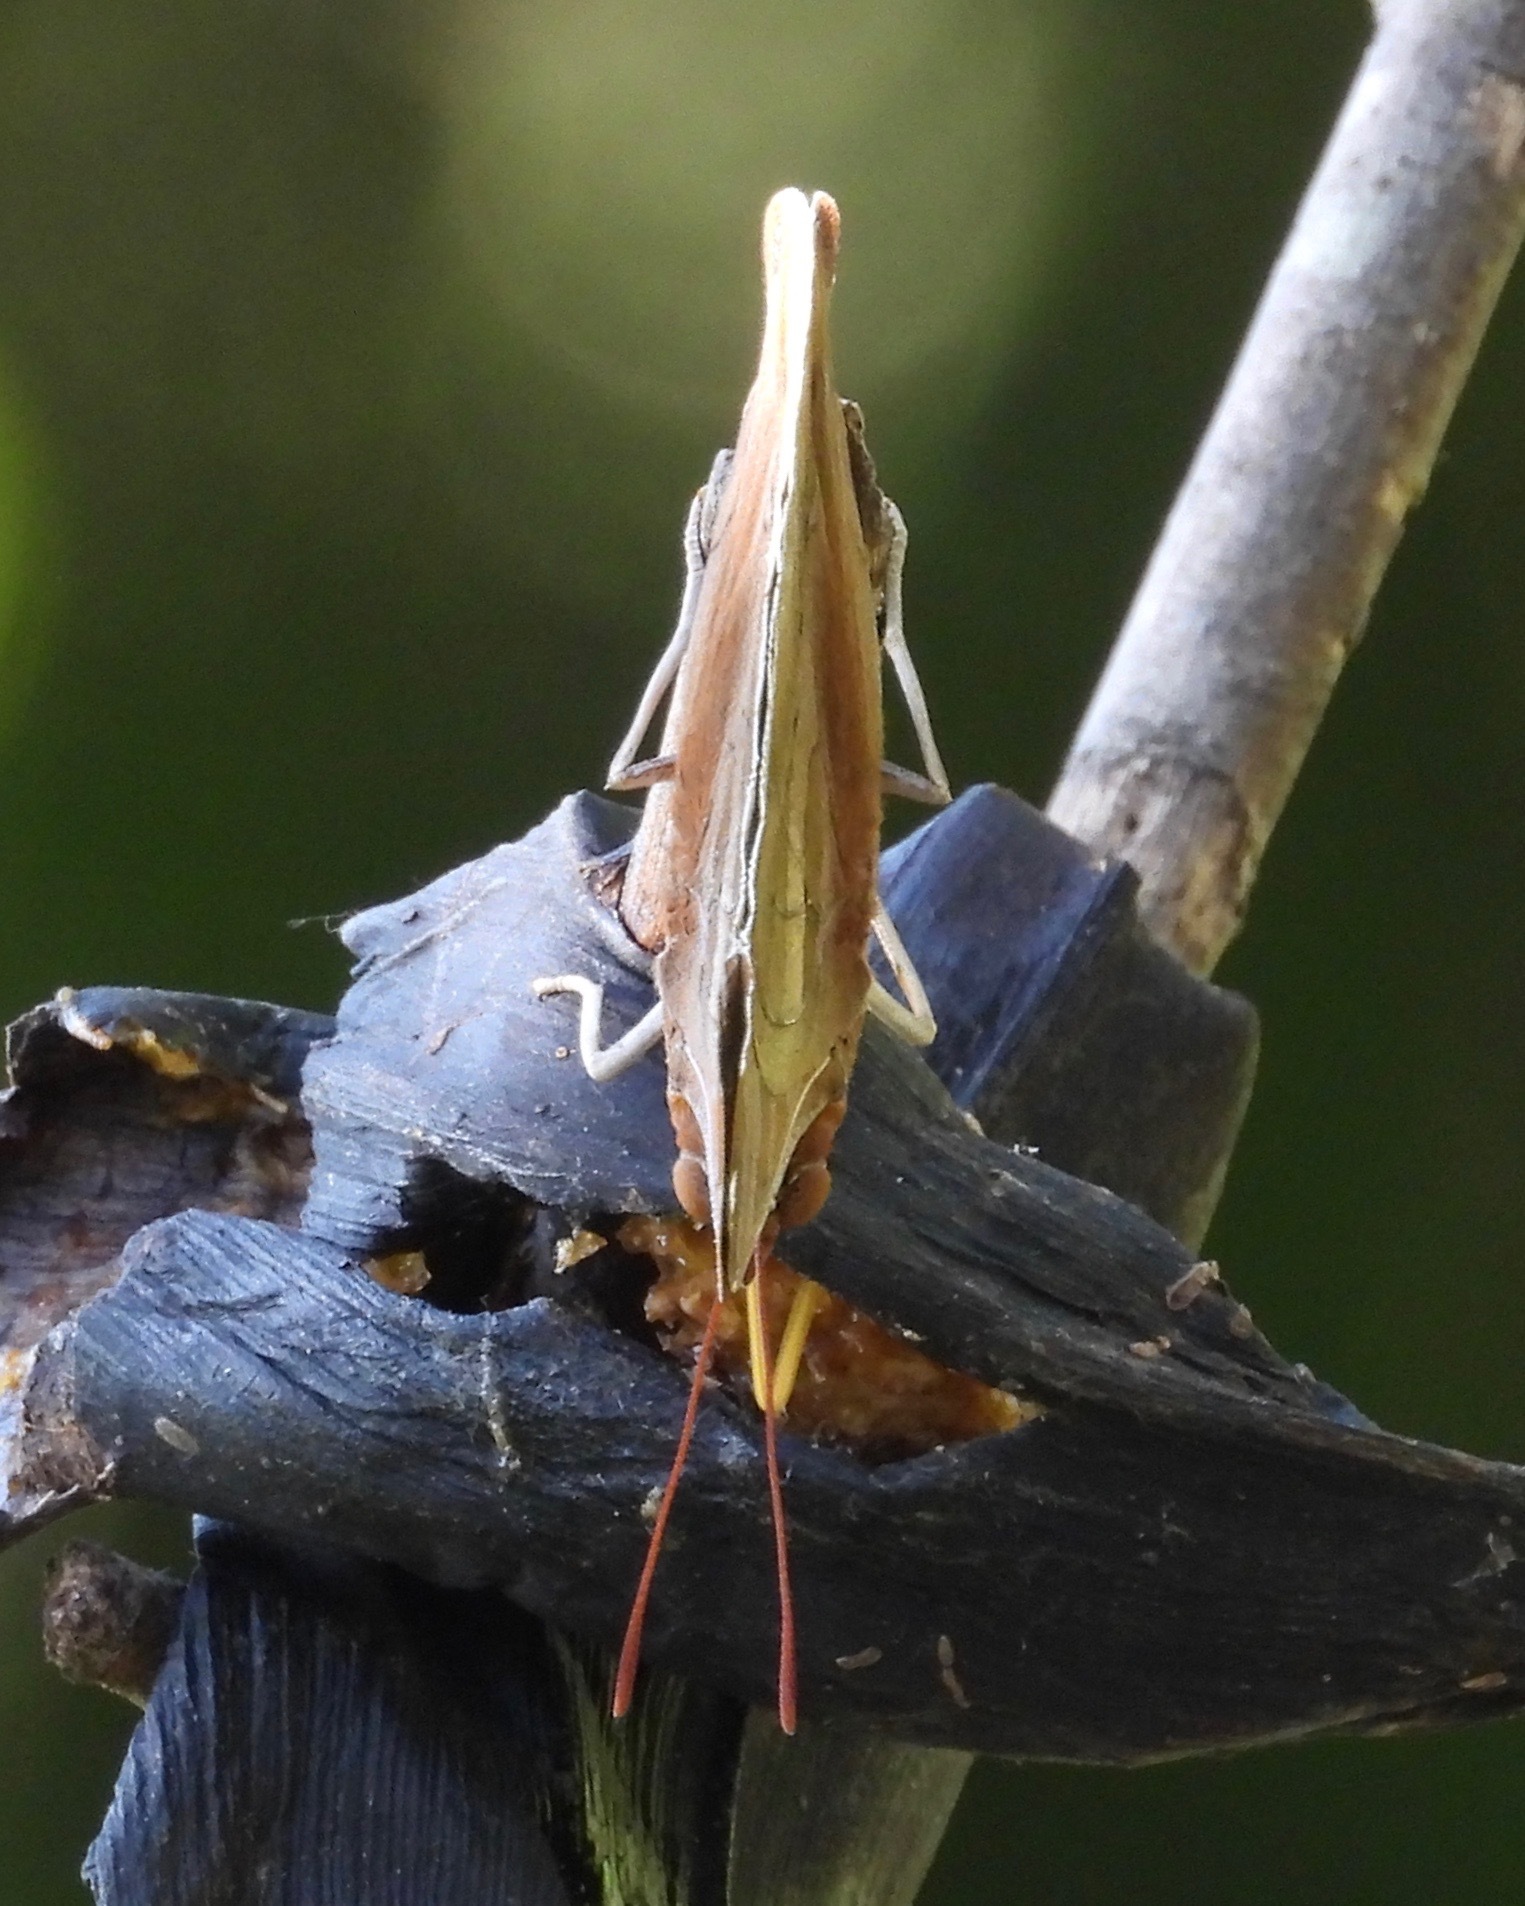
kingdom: Animalia
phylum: Arthropoda
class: Insecta
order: Lepidoptera
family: Nymphalidae
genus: Historis
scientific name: Historis odius
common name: Orion cecropian
